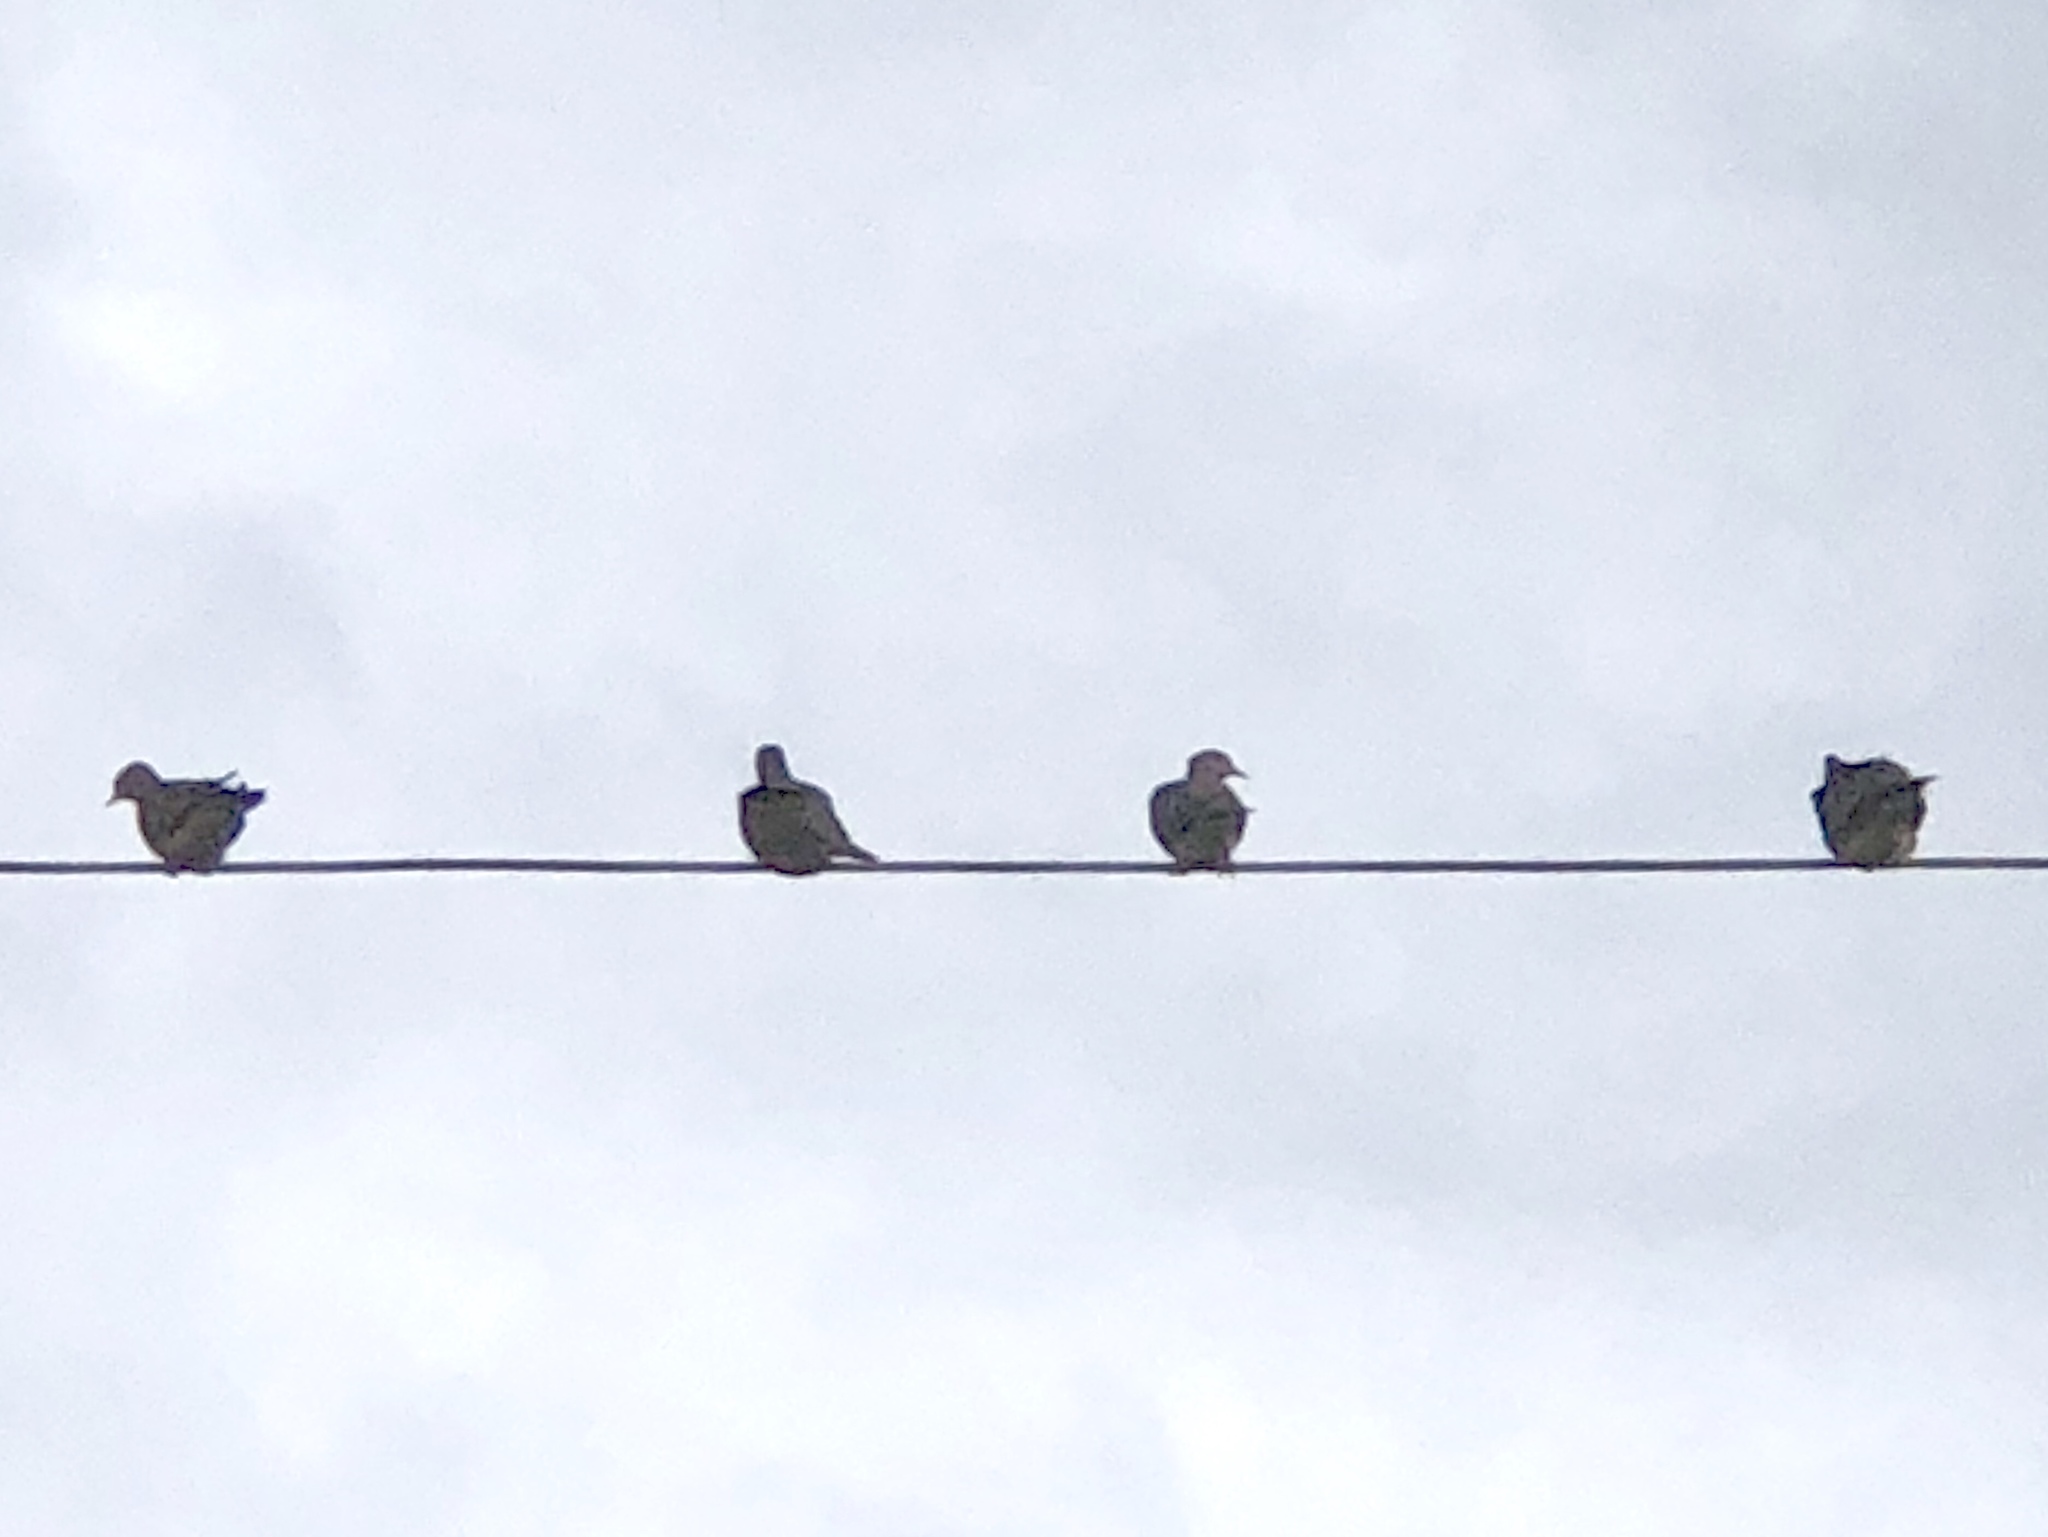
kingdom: Animalia
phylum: Chordata
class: Aves
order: Columbiformes
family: Columbidae
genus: Zenaida
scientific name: Zenaida macroura
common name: Mourning dove
